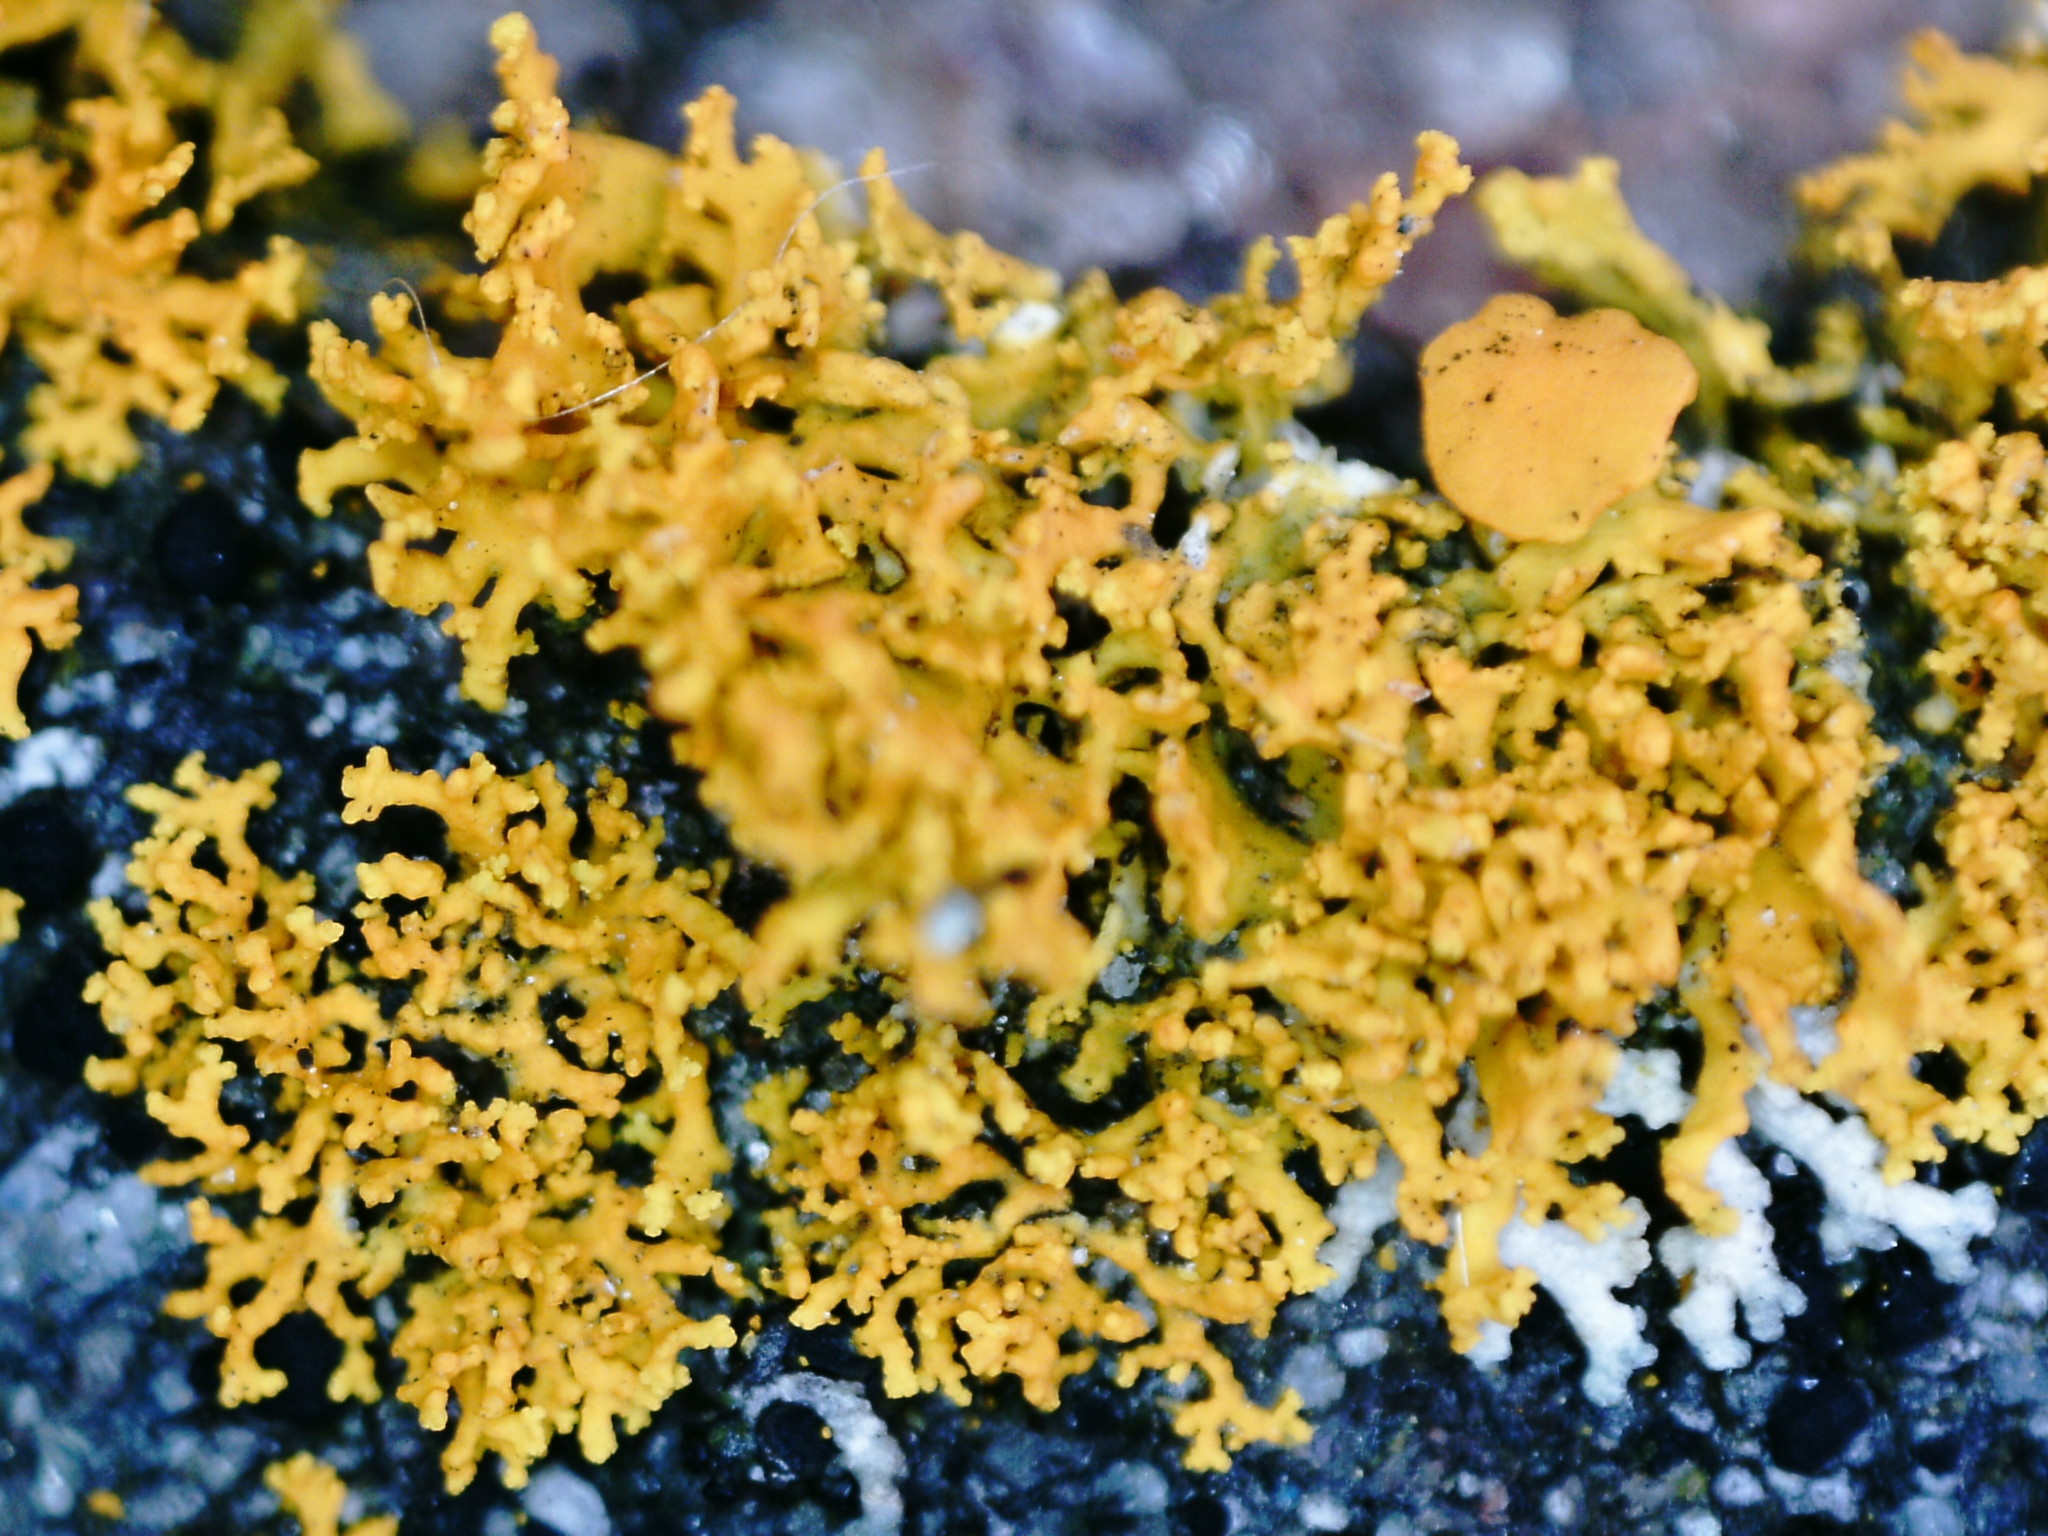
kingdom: Fungi
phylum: Ascomycota
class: Lecanoromycetes
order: Teloschistales
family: Teloschistaceae
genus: Polycauliona
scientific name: Polycauliona candelaria
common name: Shrubby sunburst lichen
